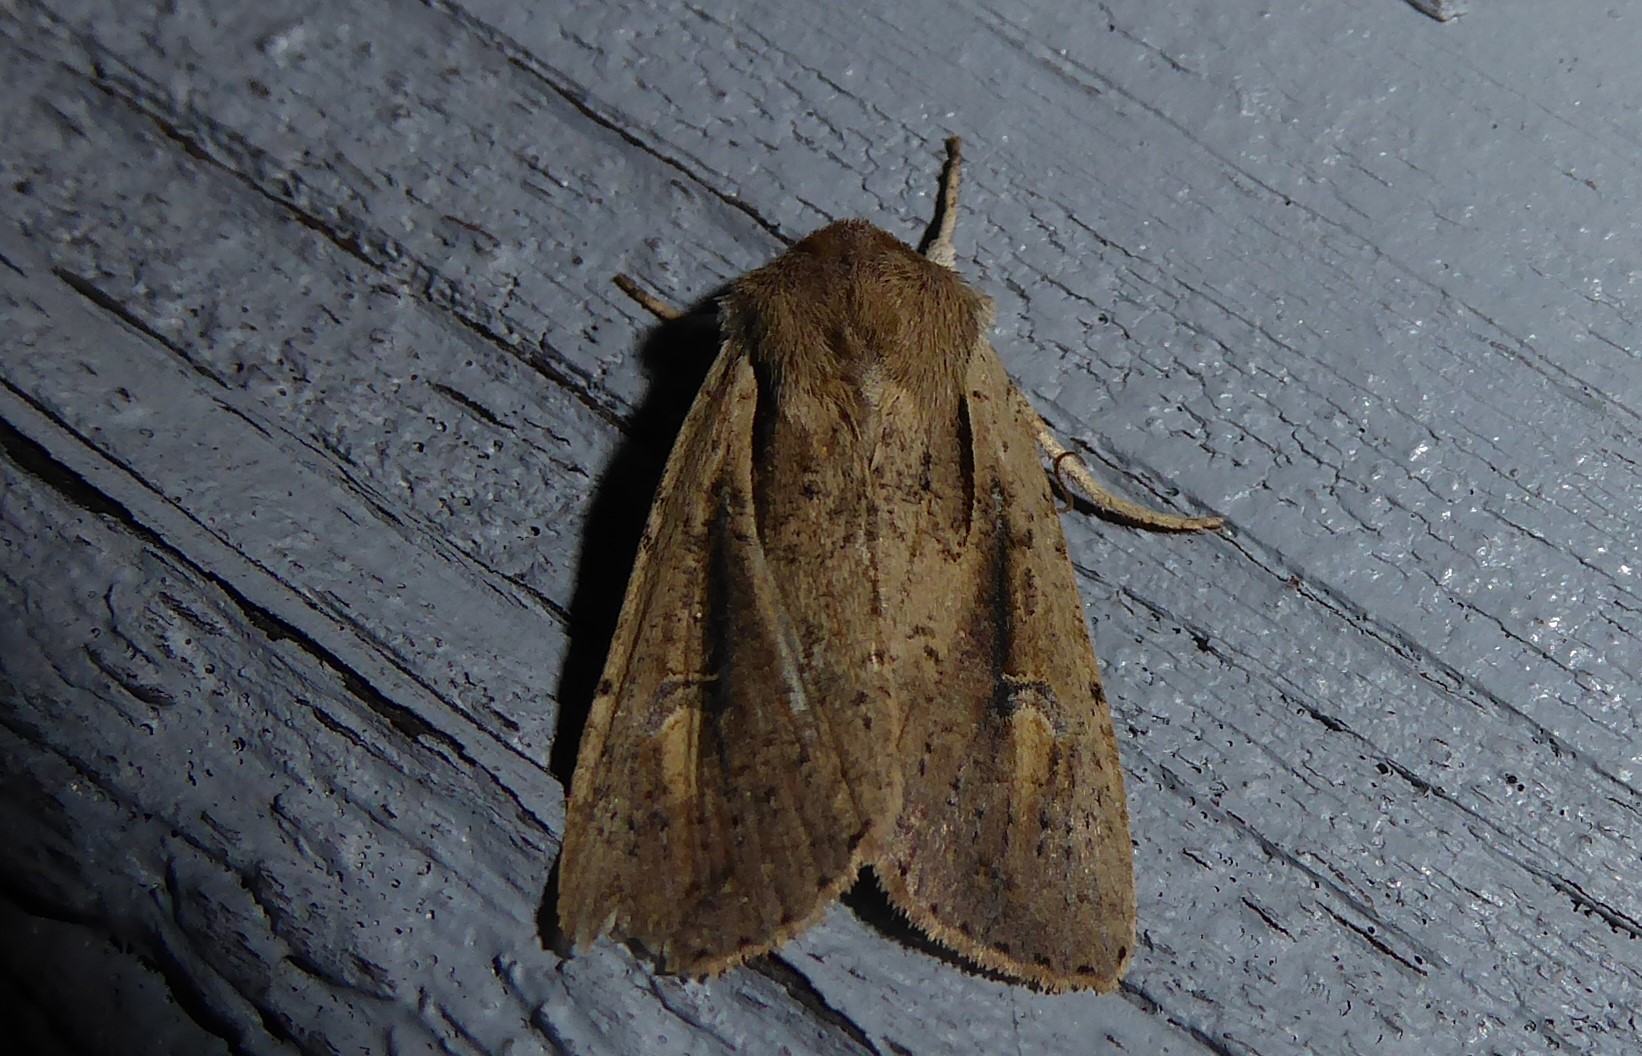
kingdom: Animalia
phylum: Arthropoda
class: Insecta
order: Lepidoptera
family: Noctuidae
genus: Ichneutica
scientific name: Ichneutica atristriga
